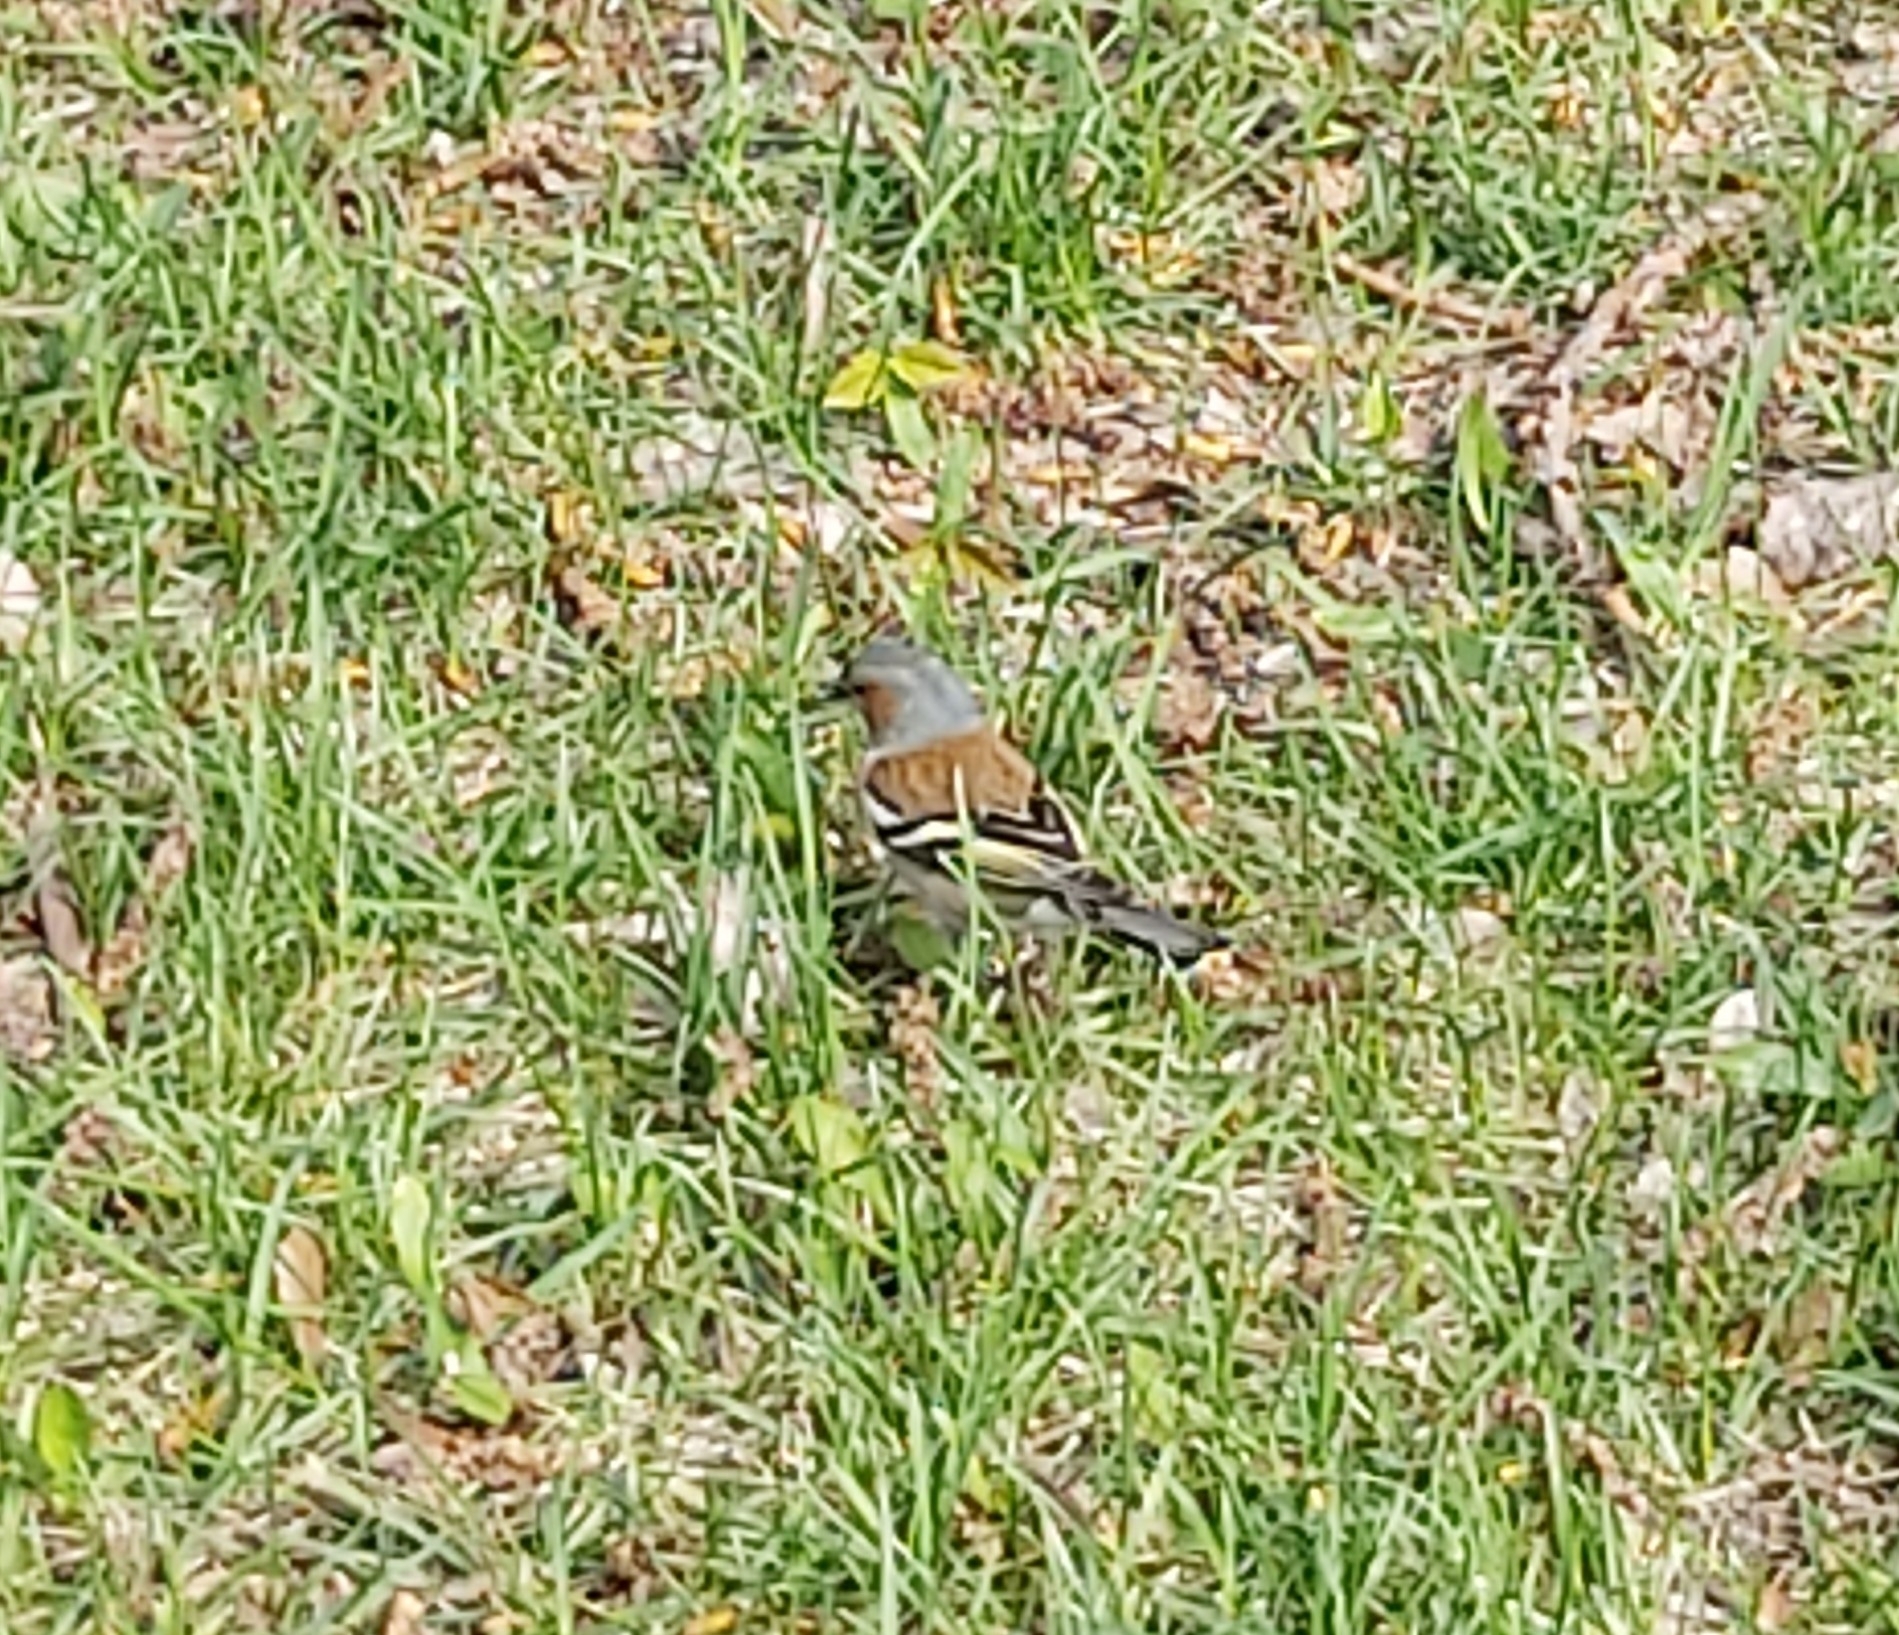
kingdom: Animalia
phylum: Chordata
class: Aves
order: Passeriformes
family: Fringillidae
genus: Fringilla
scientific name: Fringilla coelebs
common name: Common chaffinch
